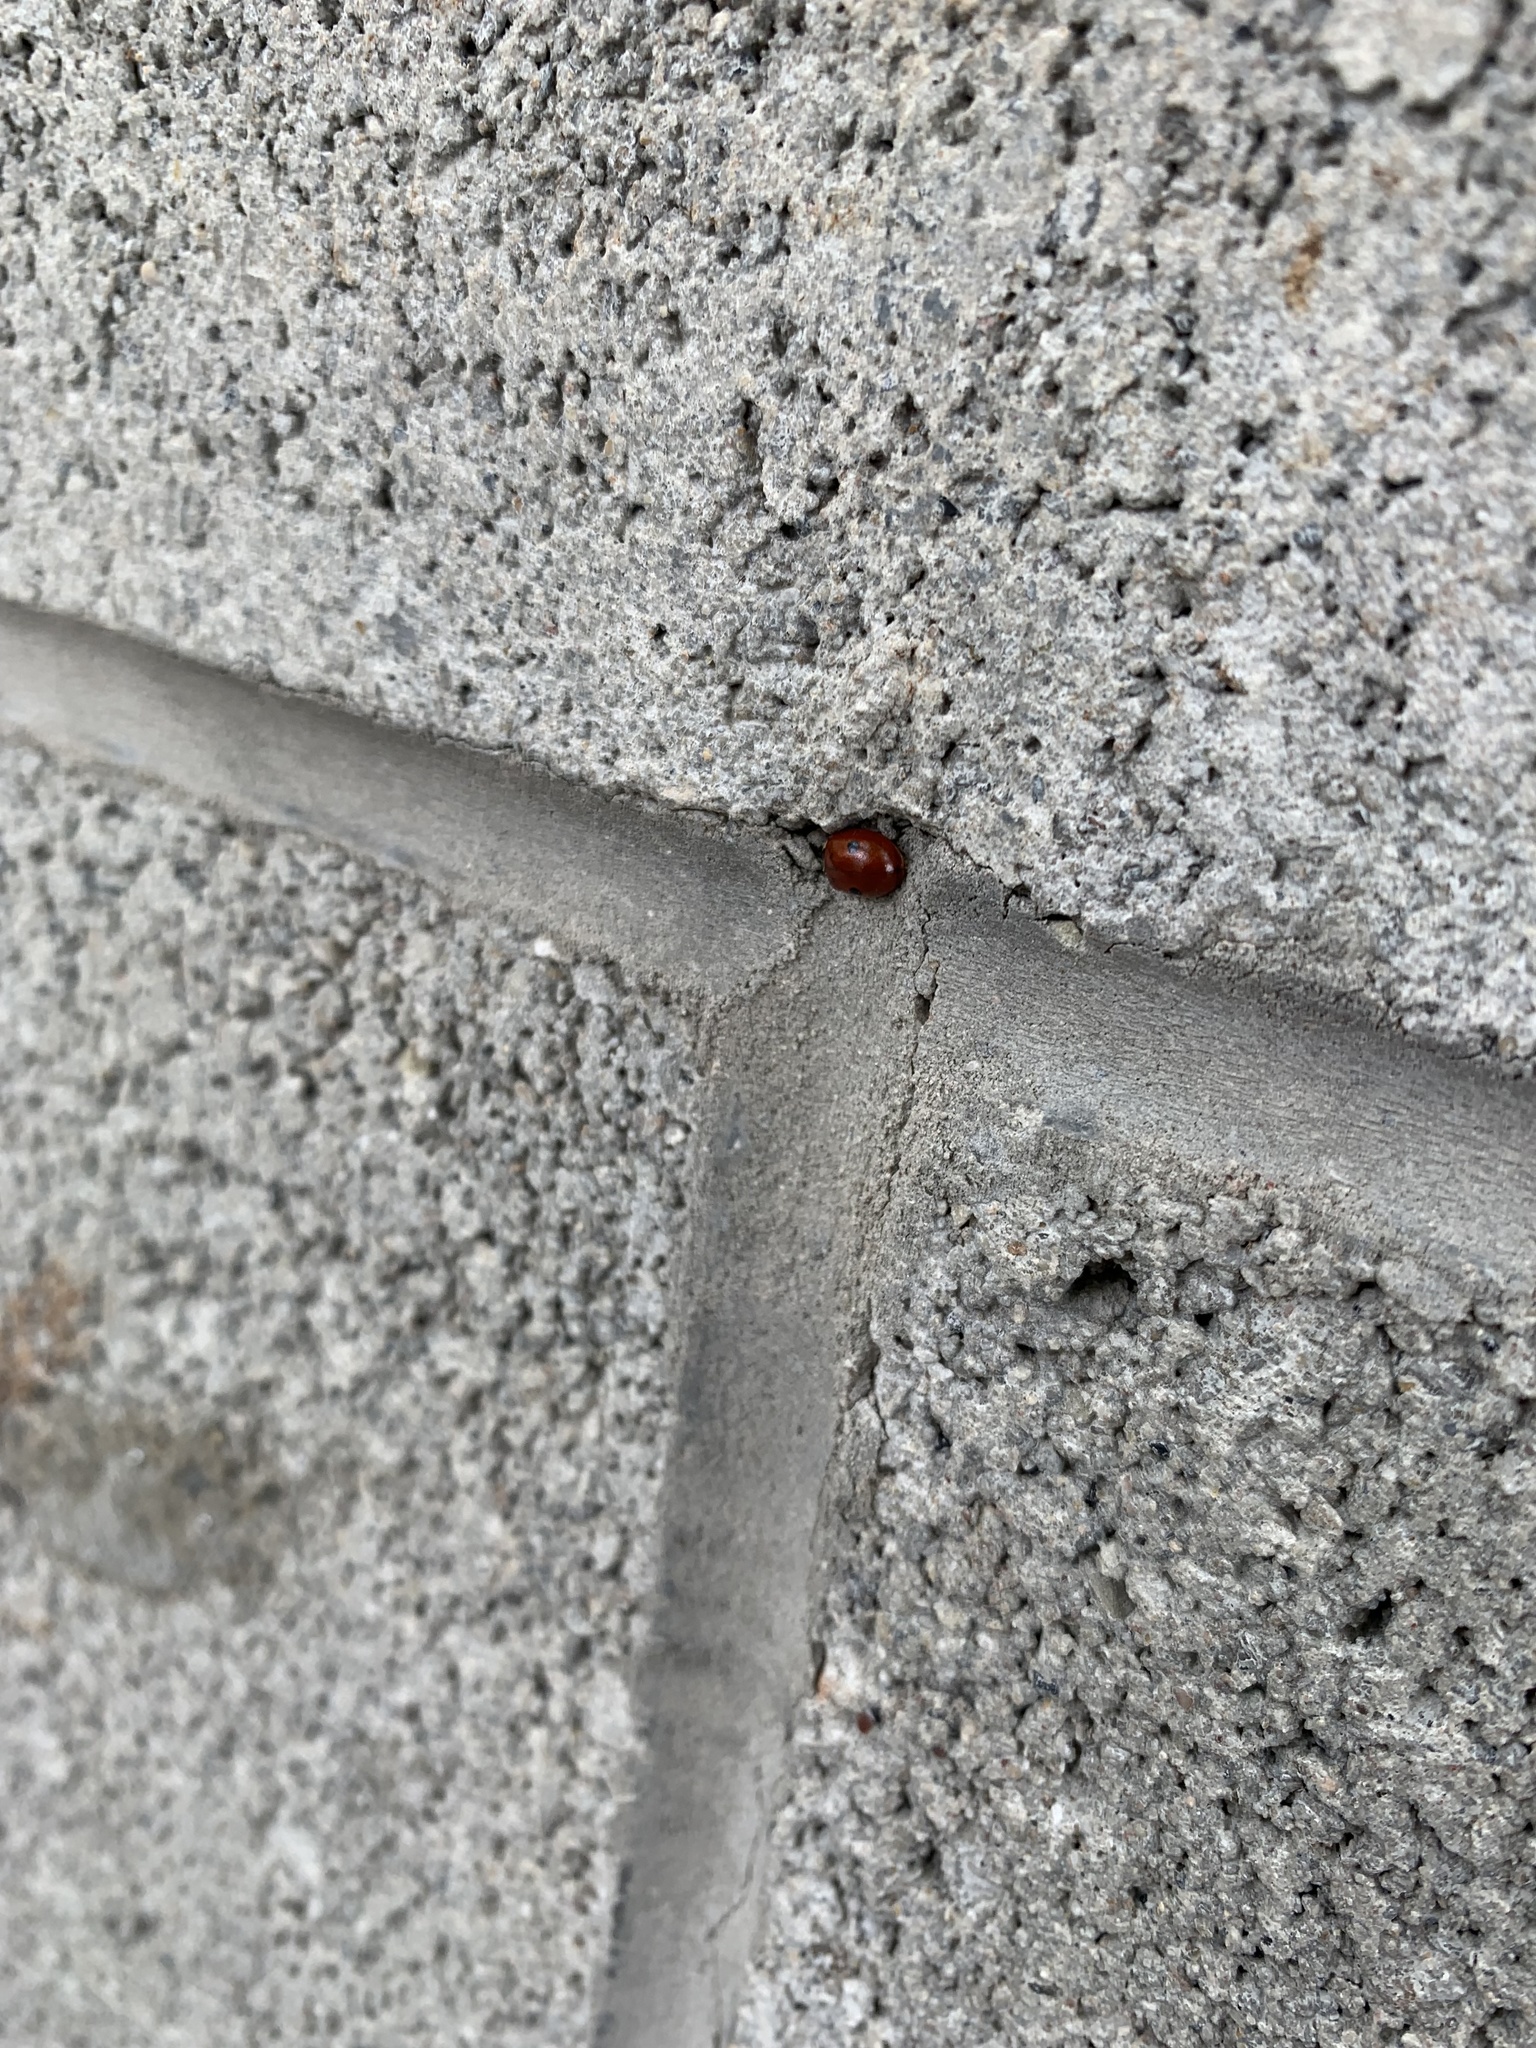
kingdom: Animalia
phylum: Arthropoda
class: Insecta
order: Coleoptera
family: Coccinellidae
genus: Adalia
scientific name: Adalia bipunctata
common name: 2-spot ladybird
